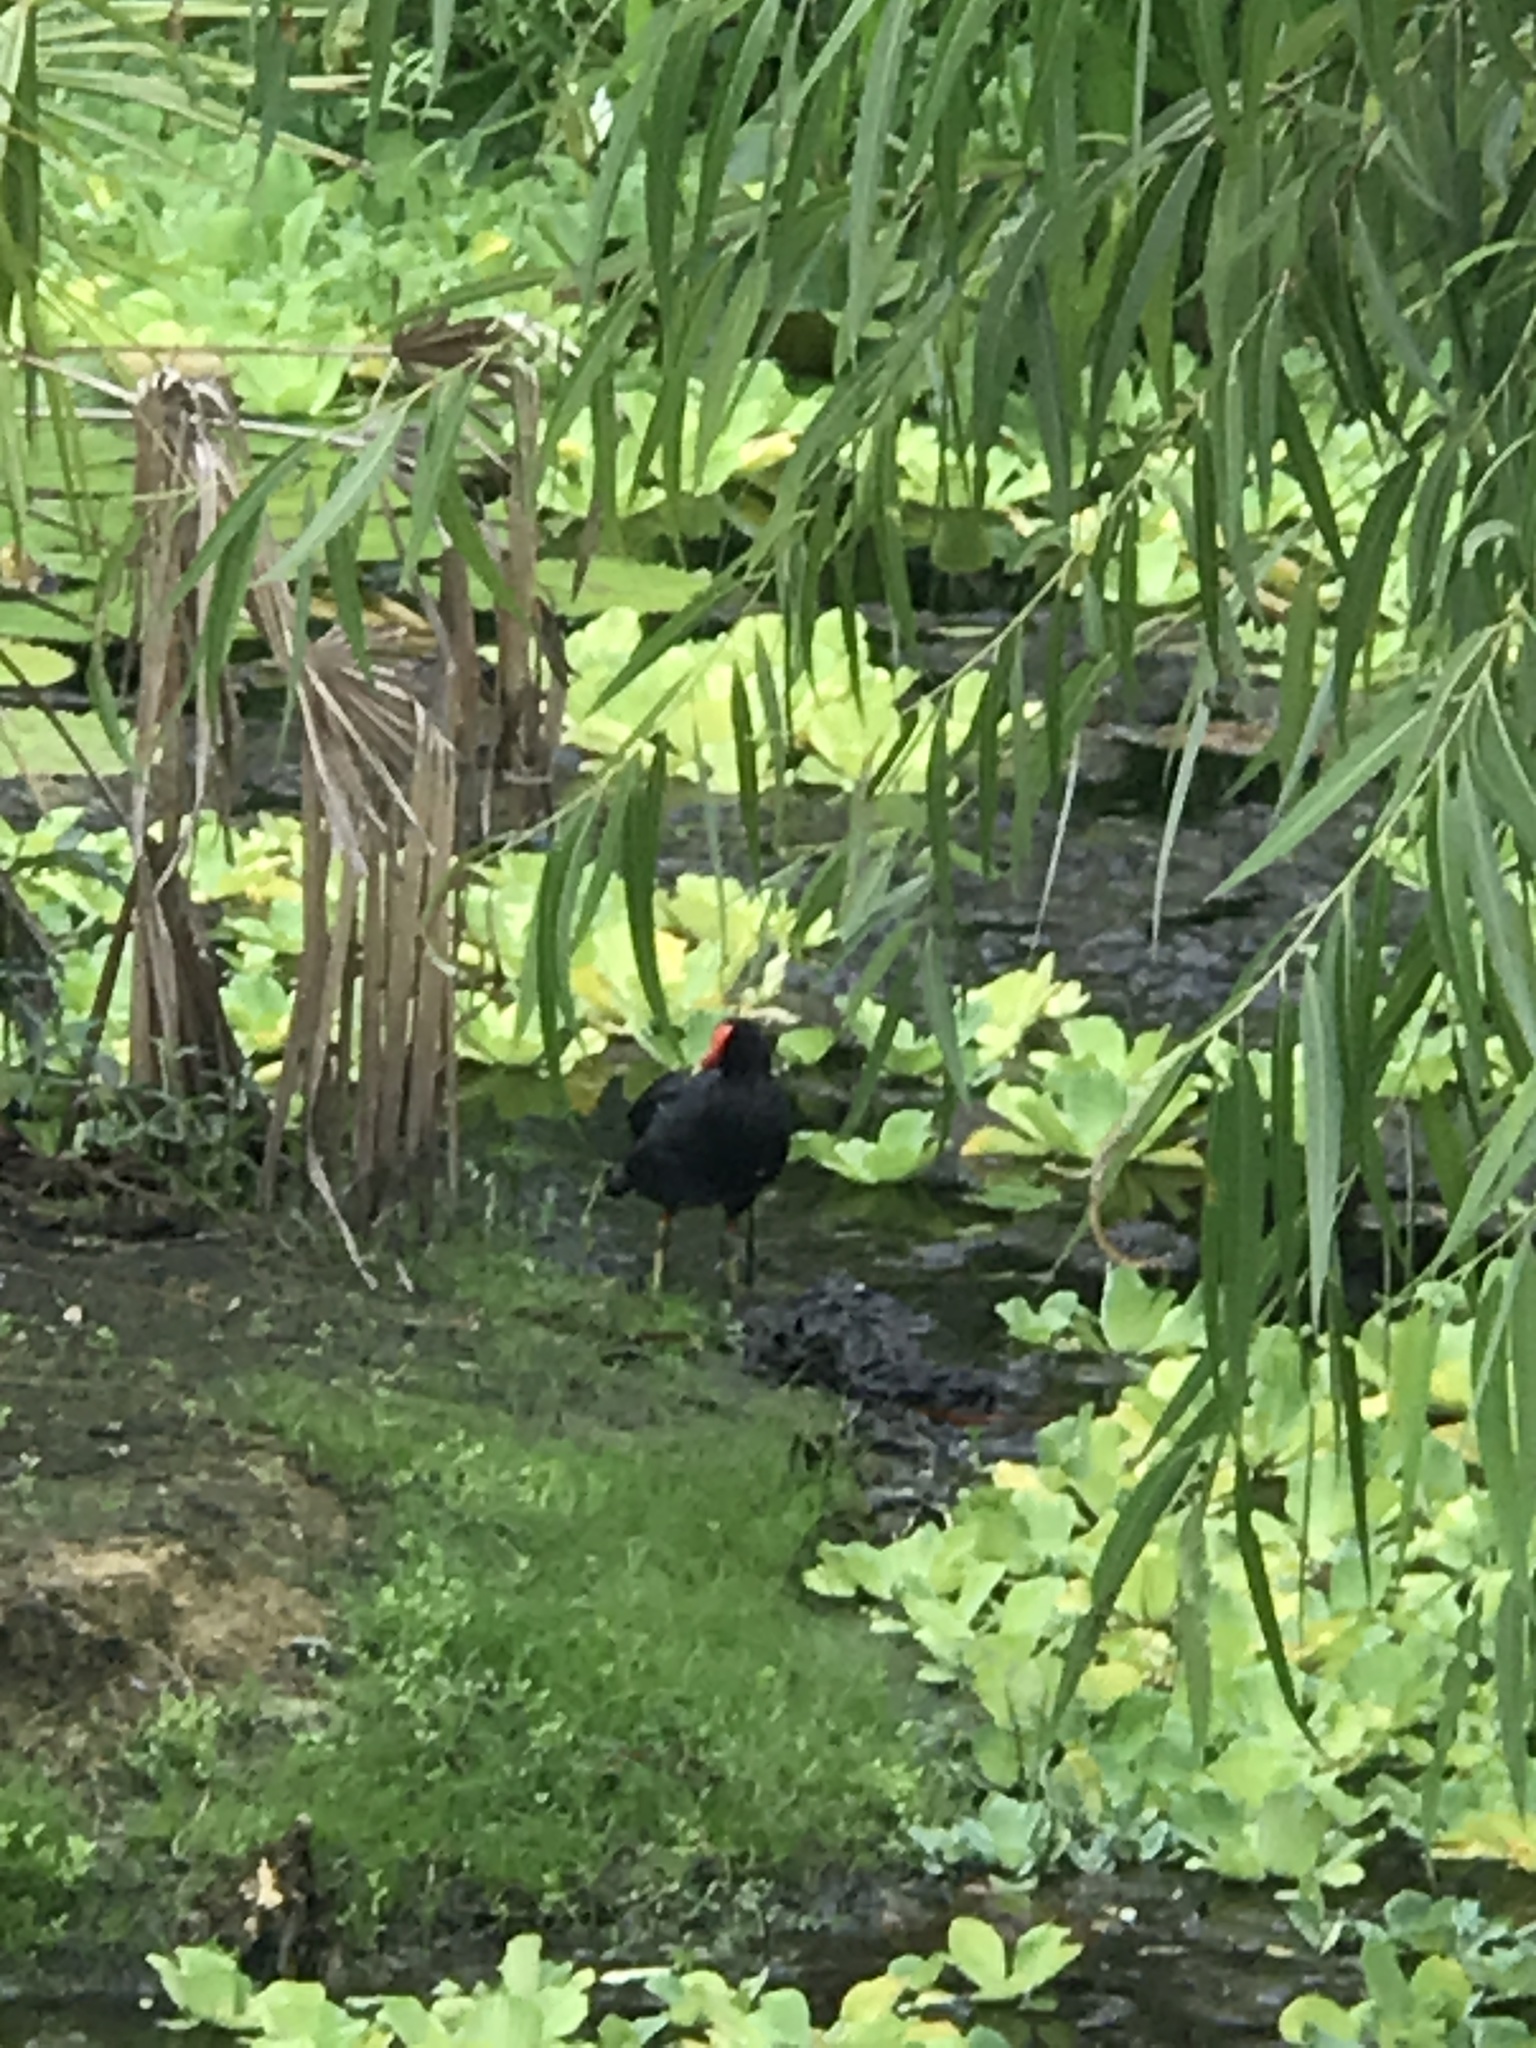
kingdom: Animalia
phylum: Chordata
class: Aves
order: Gruiformes
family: Rallidae
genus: Gallinula
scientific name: Gallinula chloropus
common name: Common moorhen
